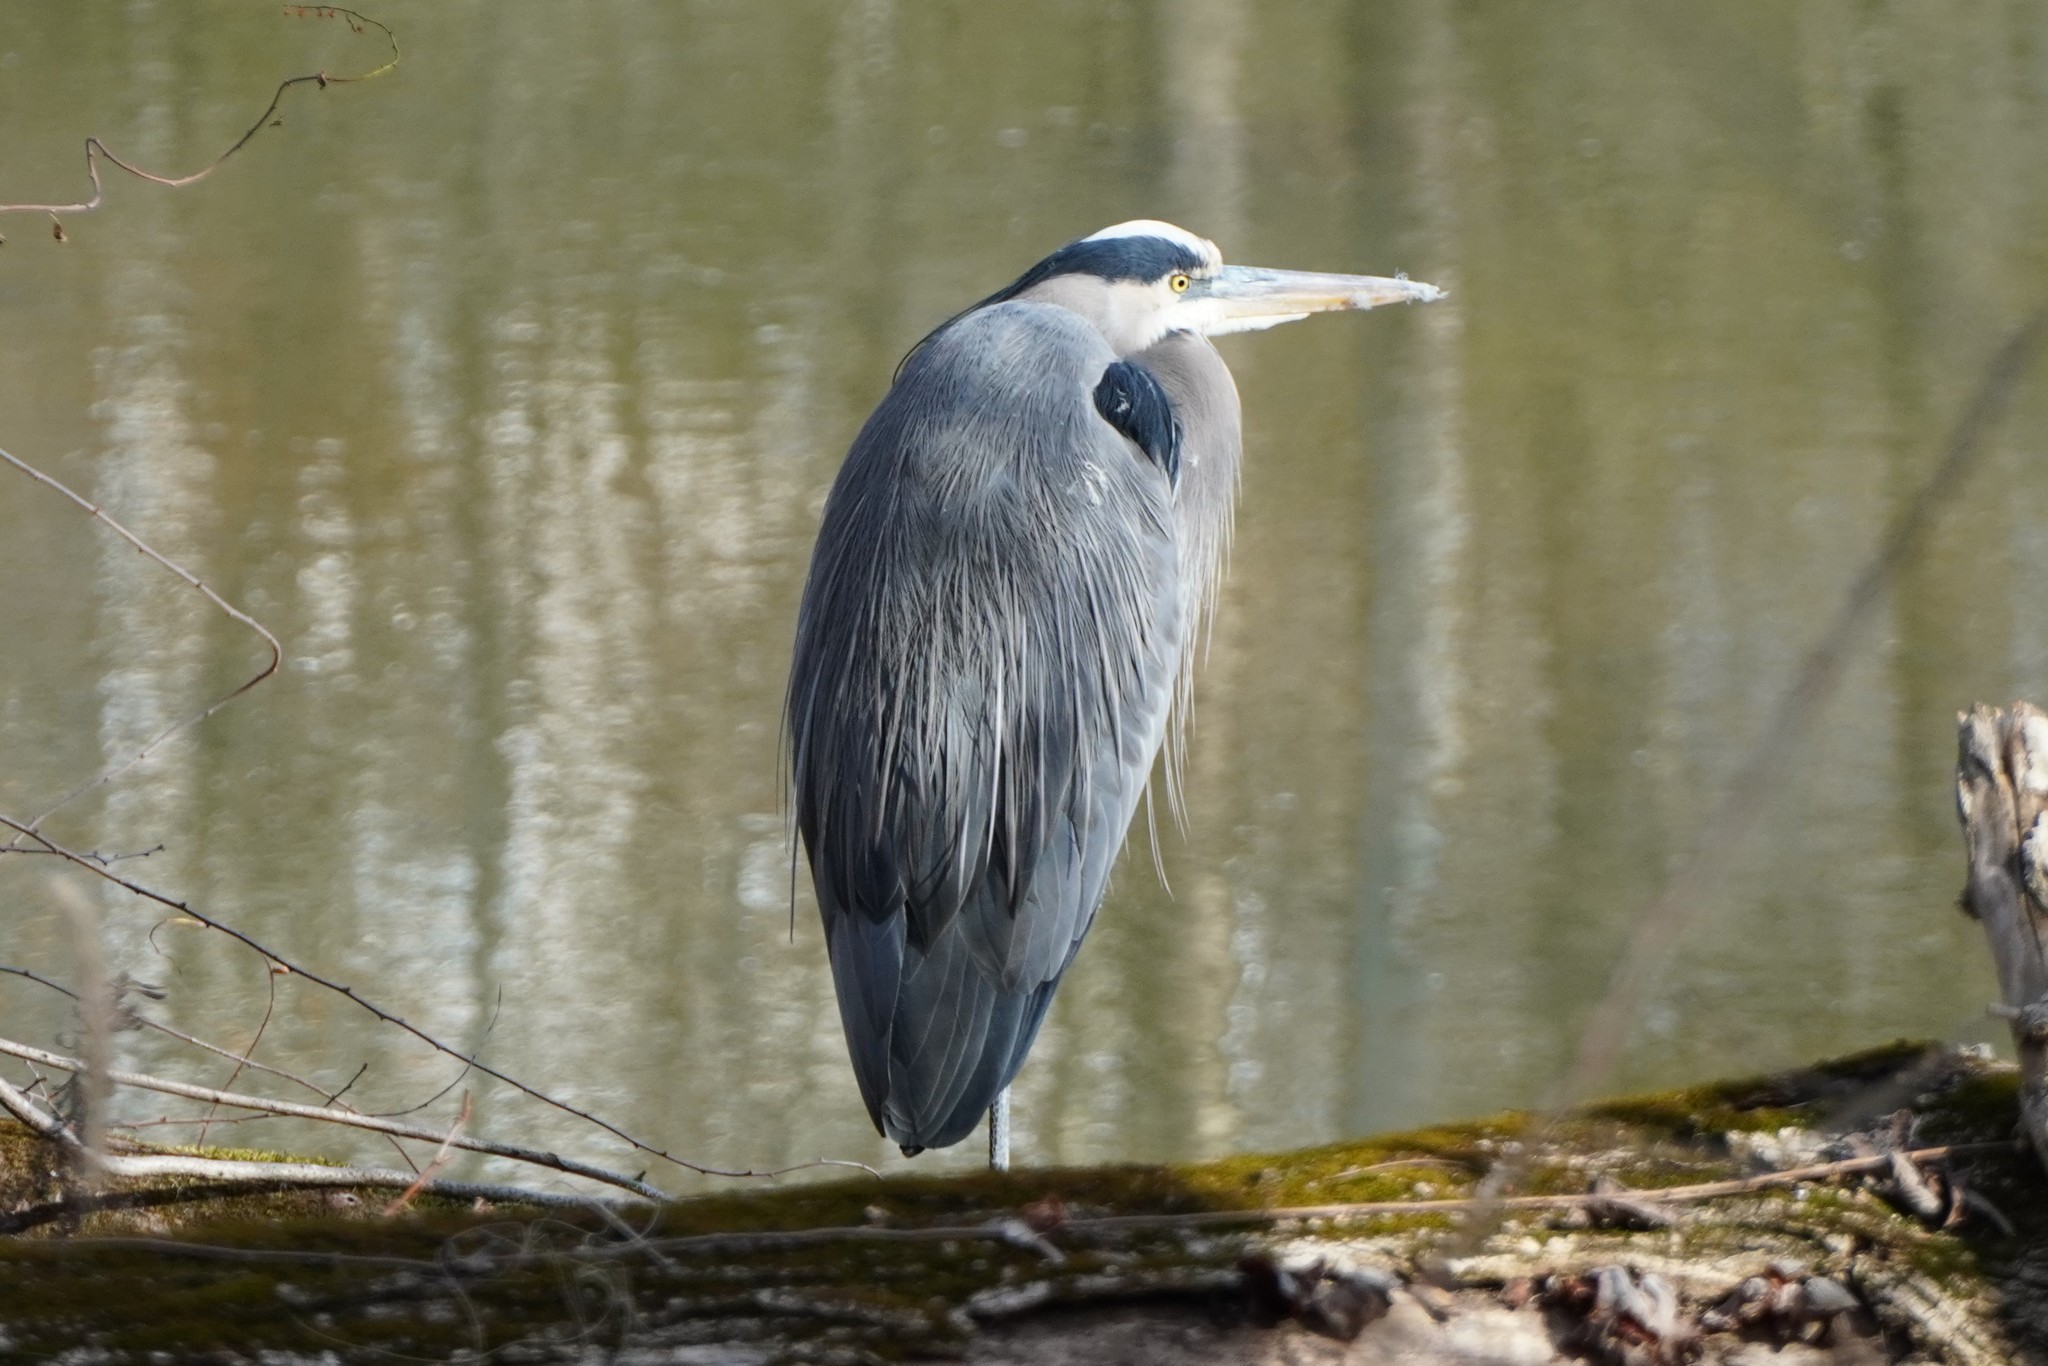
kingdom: Animalia
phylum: Chordata
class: Aves
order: Pelecaniformes
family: Ardeidae
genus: Ardea
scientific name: Ardea herodias
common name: Great blue heron
